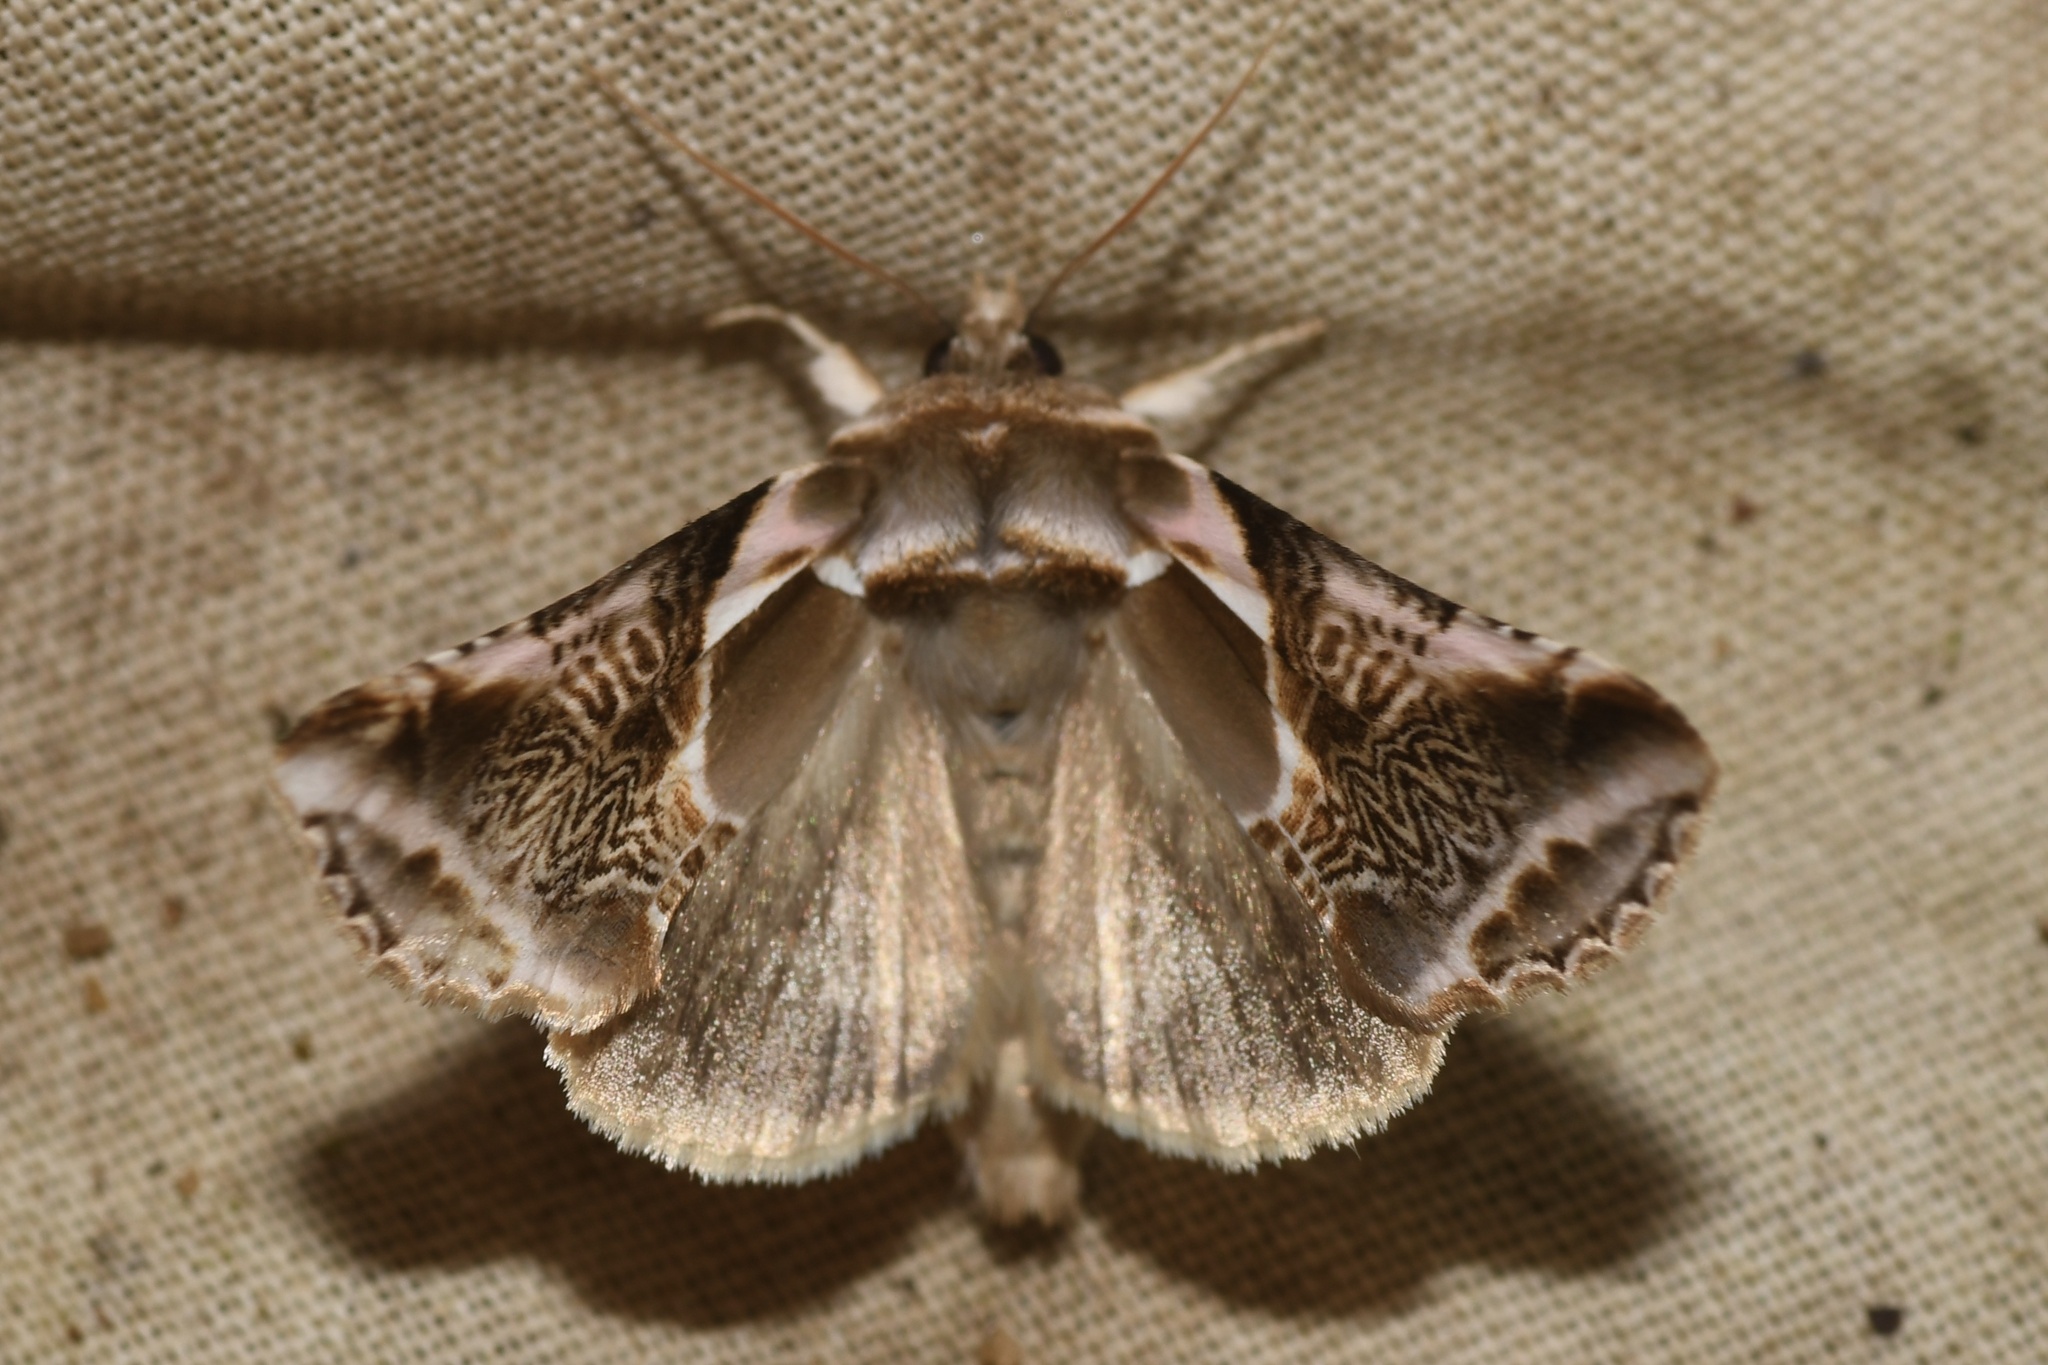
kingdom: Animalia
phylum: Arthropoda
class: Insecta
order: Lepidoptera
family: Drepanidae
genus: Habrosyne
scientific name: Habrosyne scripta
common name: Lettered habrosyne moth
